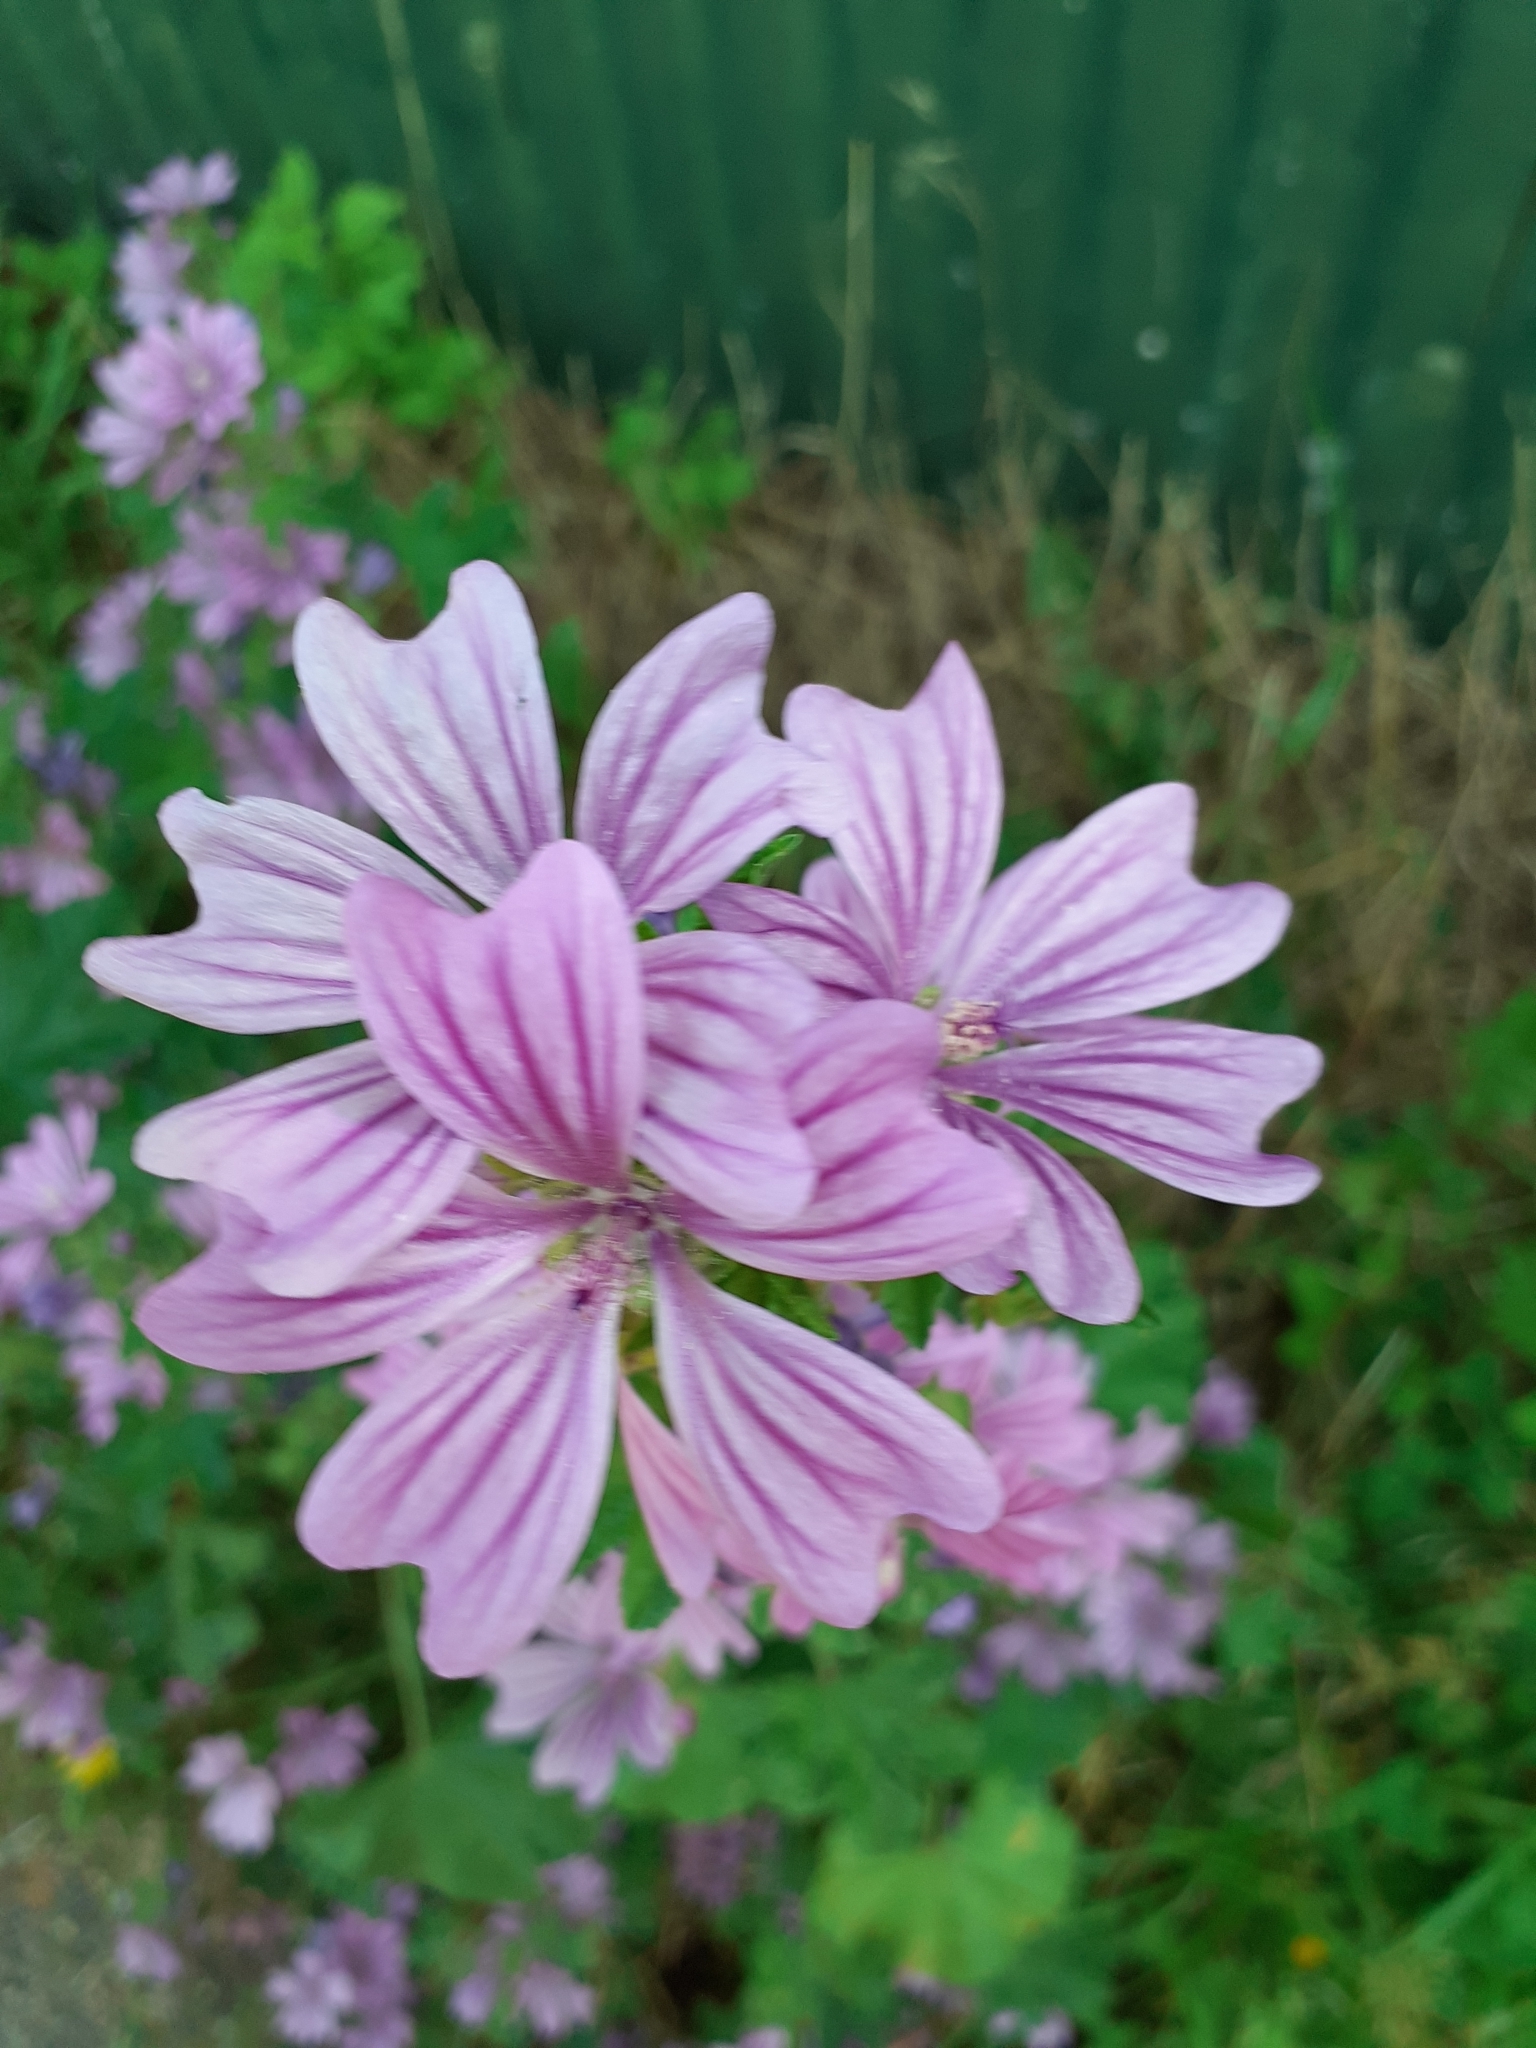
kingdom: Plantae
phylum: Tracheophyta
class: Magnoliopsida
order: Malvales
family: Malvaceae
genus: Malva
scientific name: Malva sylvestris
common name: Common mallow
